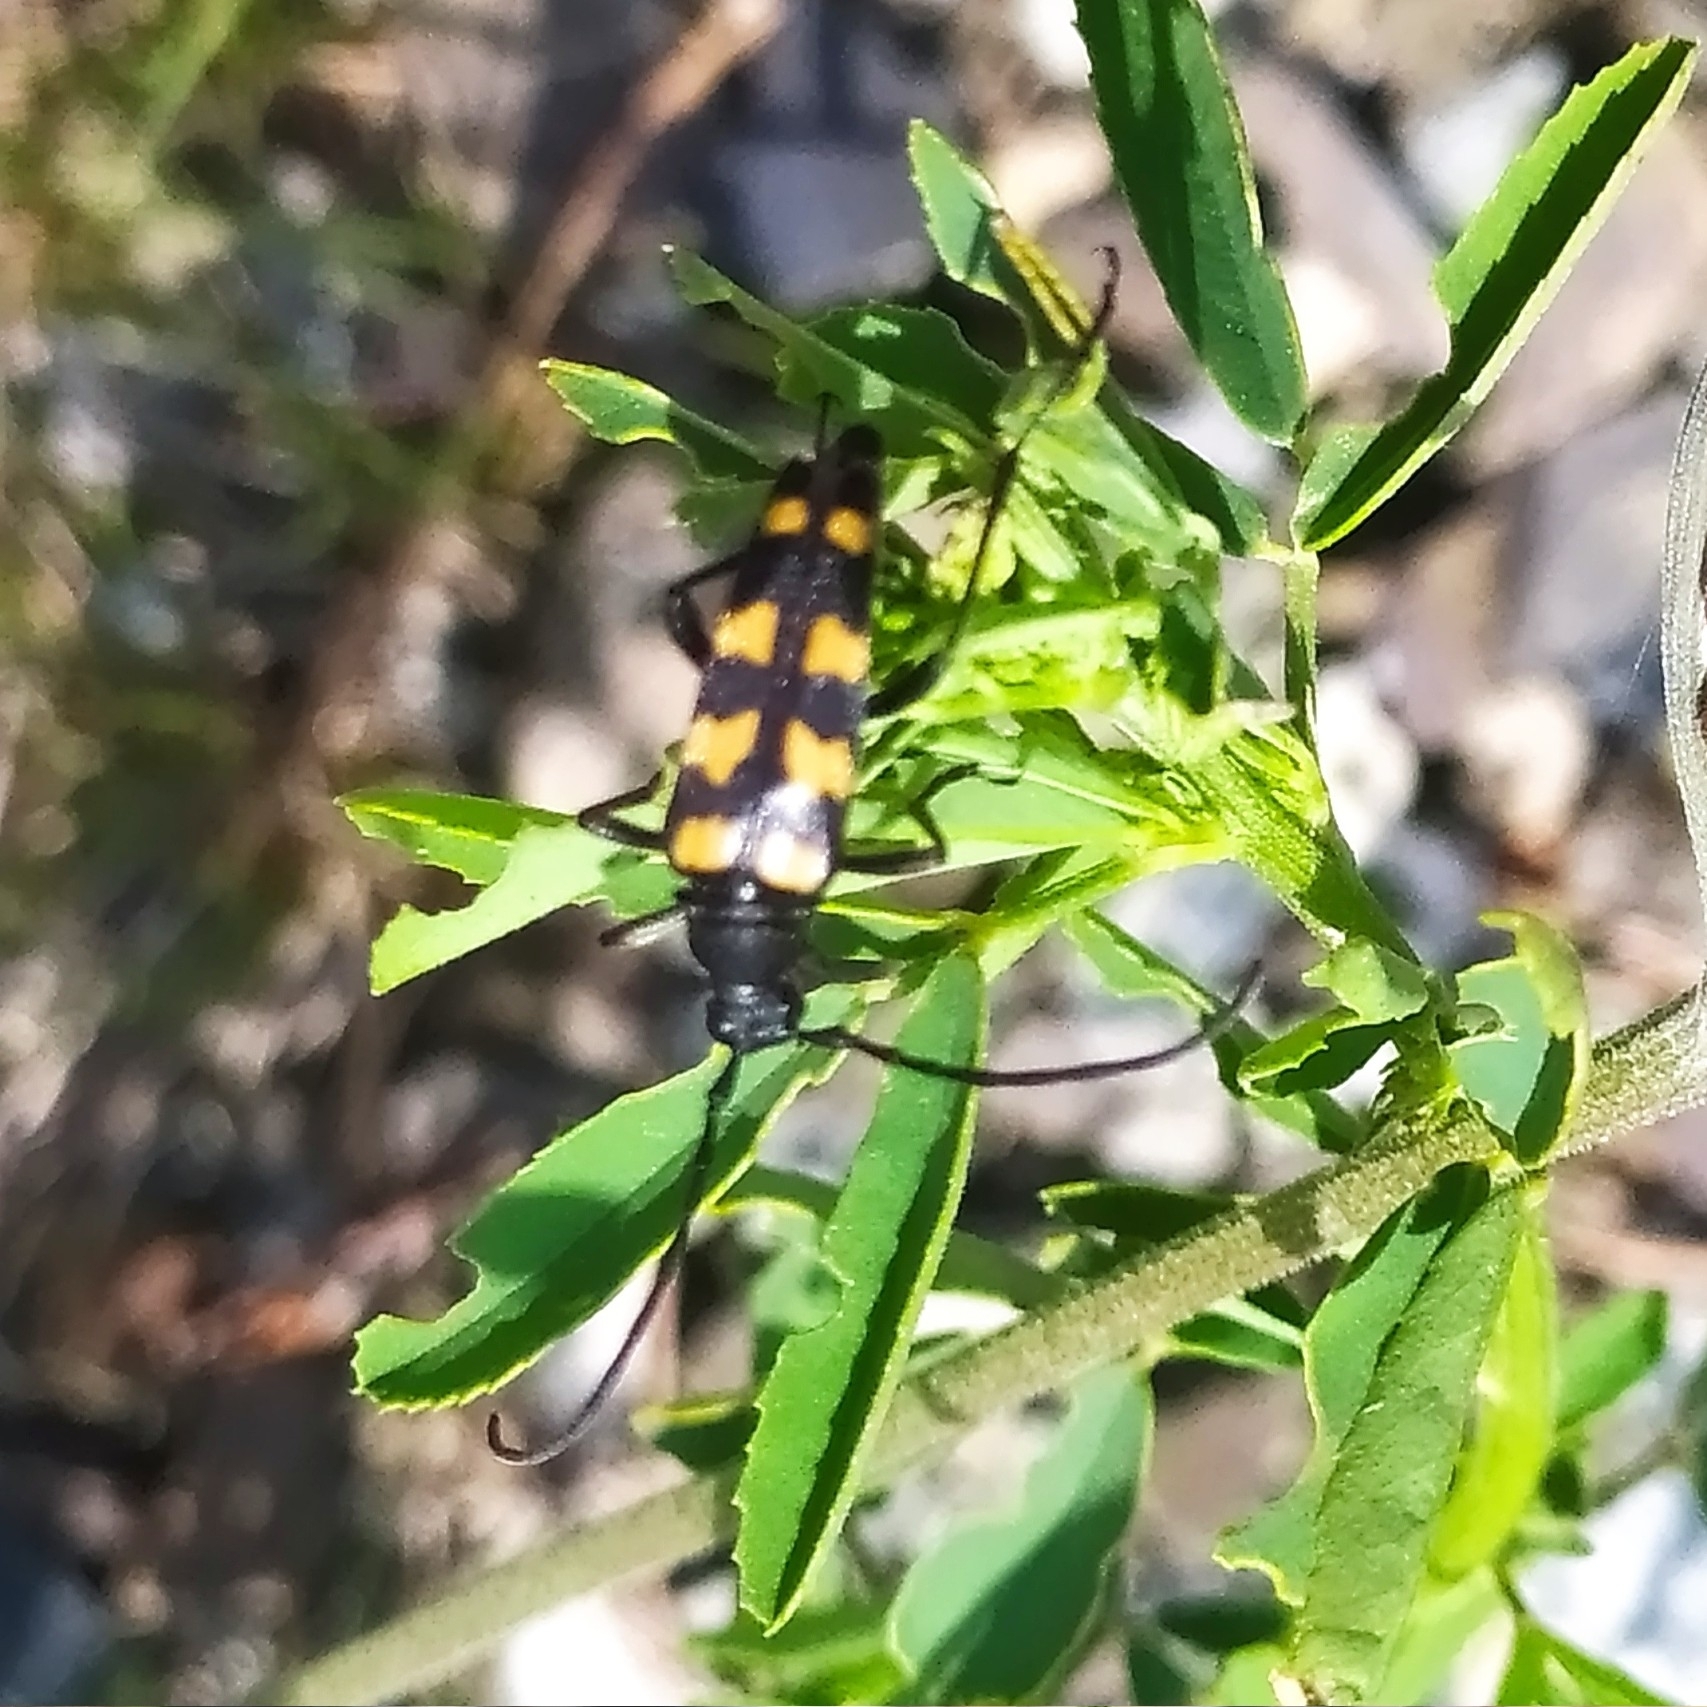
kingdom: Animalia
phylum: Arthropoda
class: Insecta
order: Coleoptera
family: Cerambycidae
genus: Leptura
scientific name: Leptura quadrifasciata
